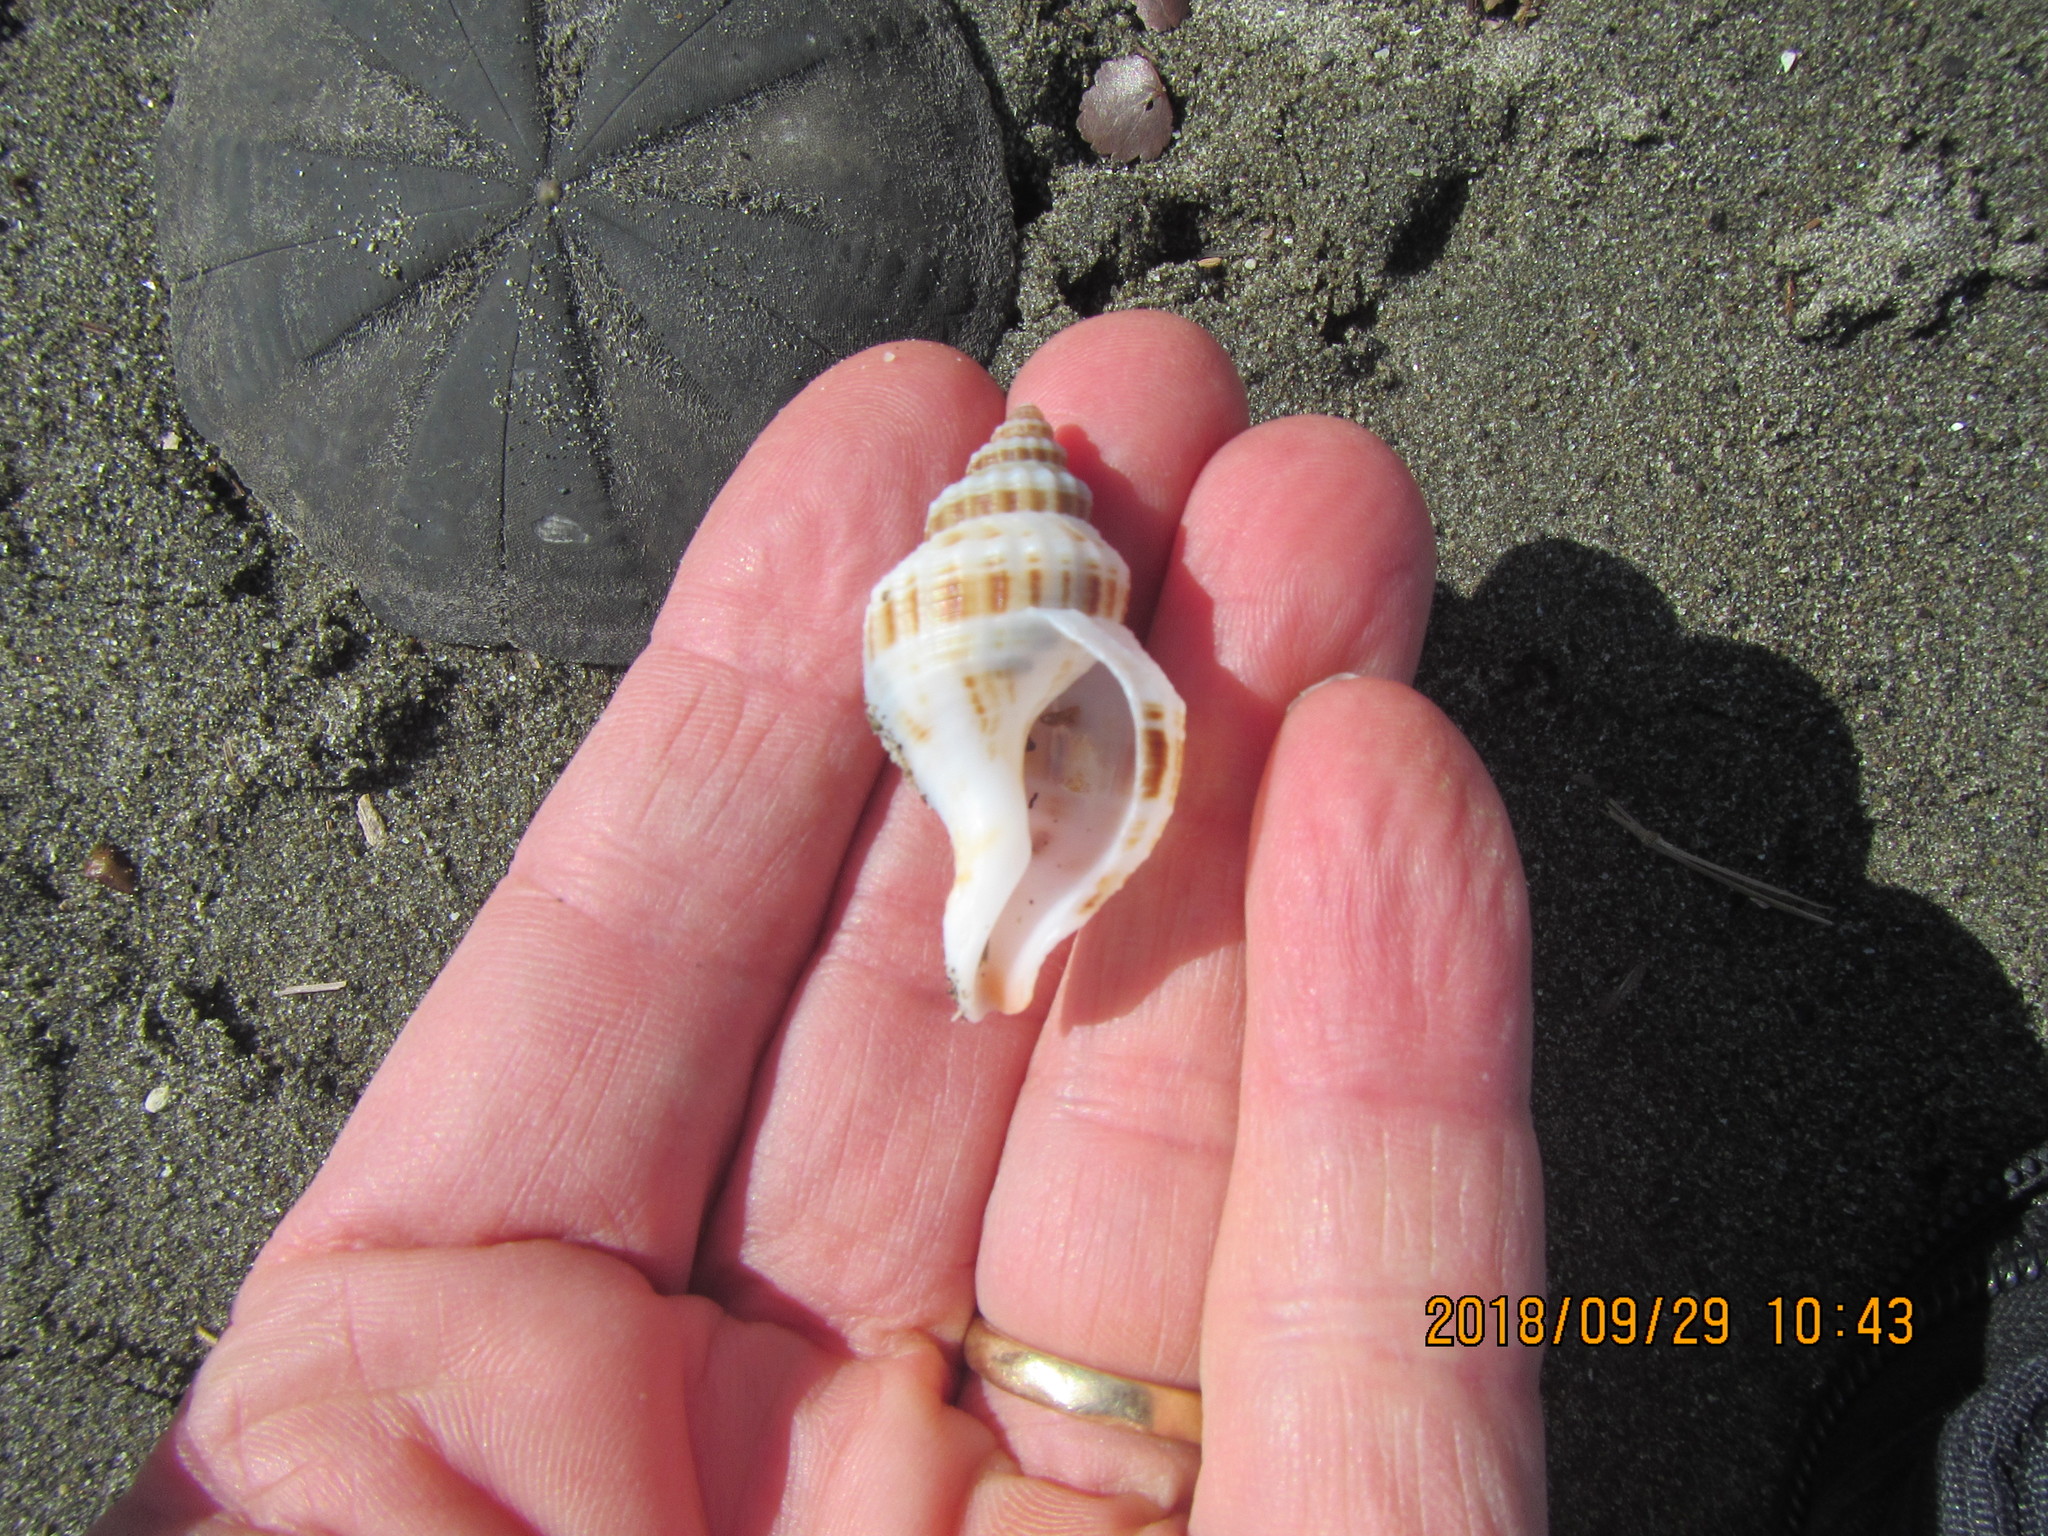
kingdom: Animalia
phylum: Mollusca
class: Gastropoda
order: Neogastropoda
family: Prosiphonidae
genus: Austrofusus
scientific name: Austrofusus glans
